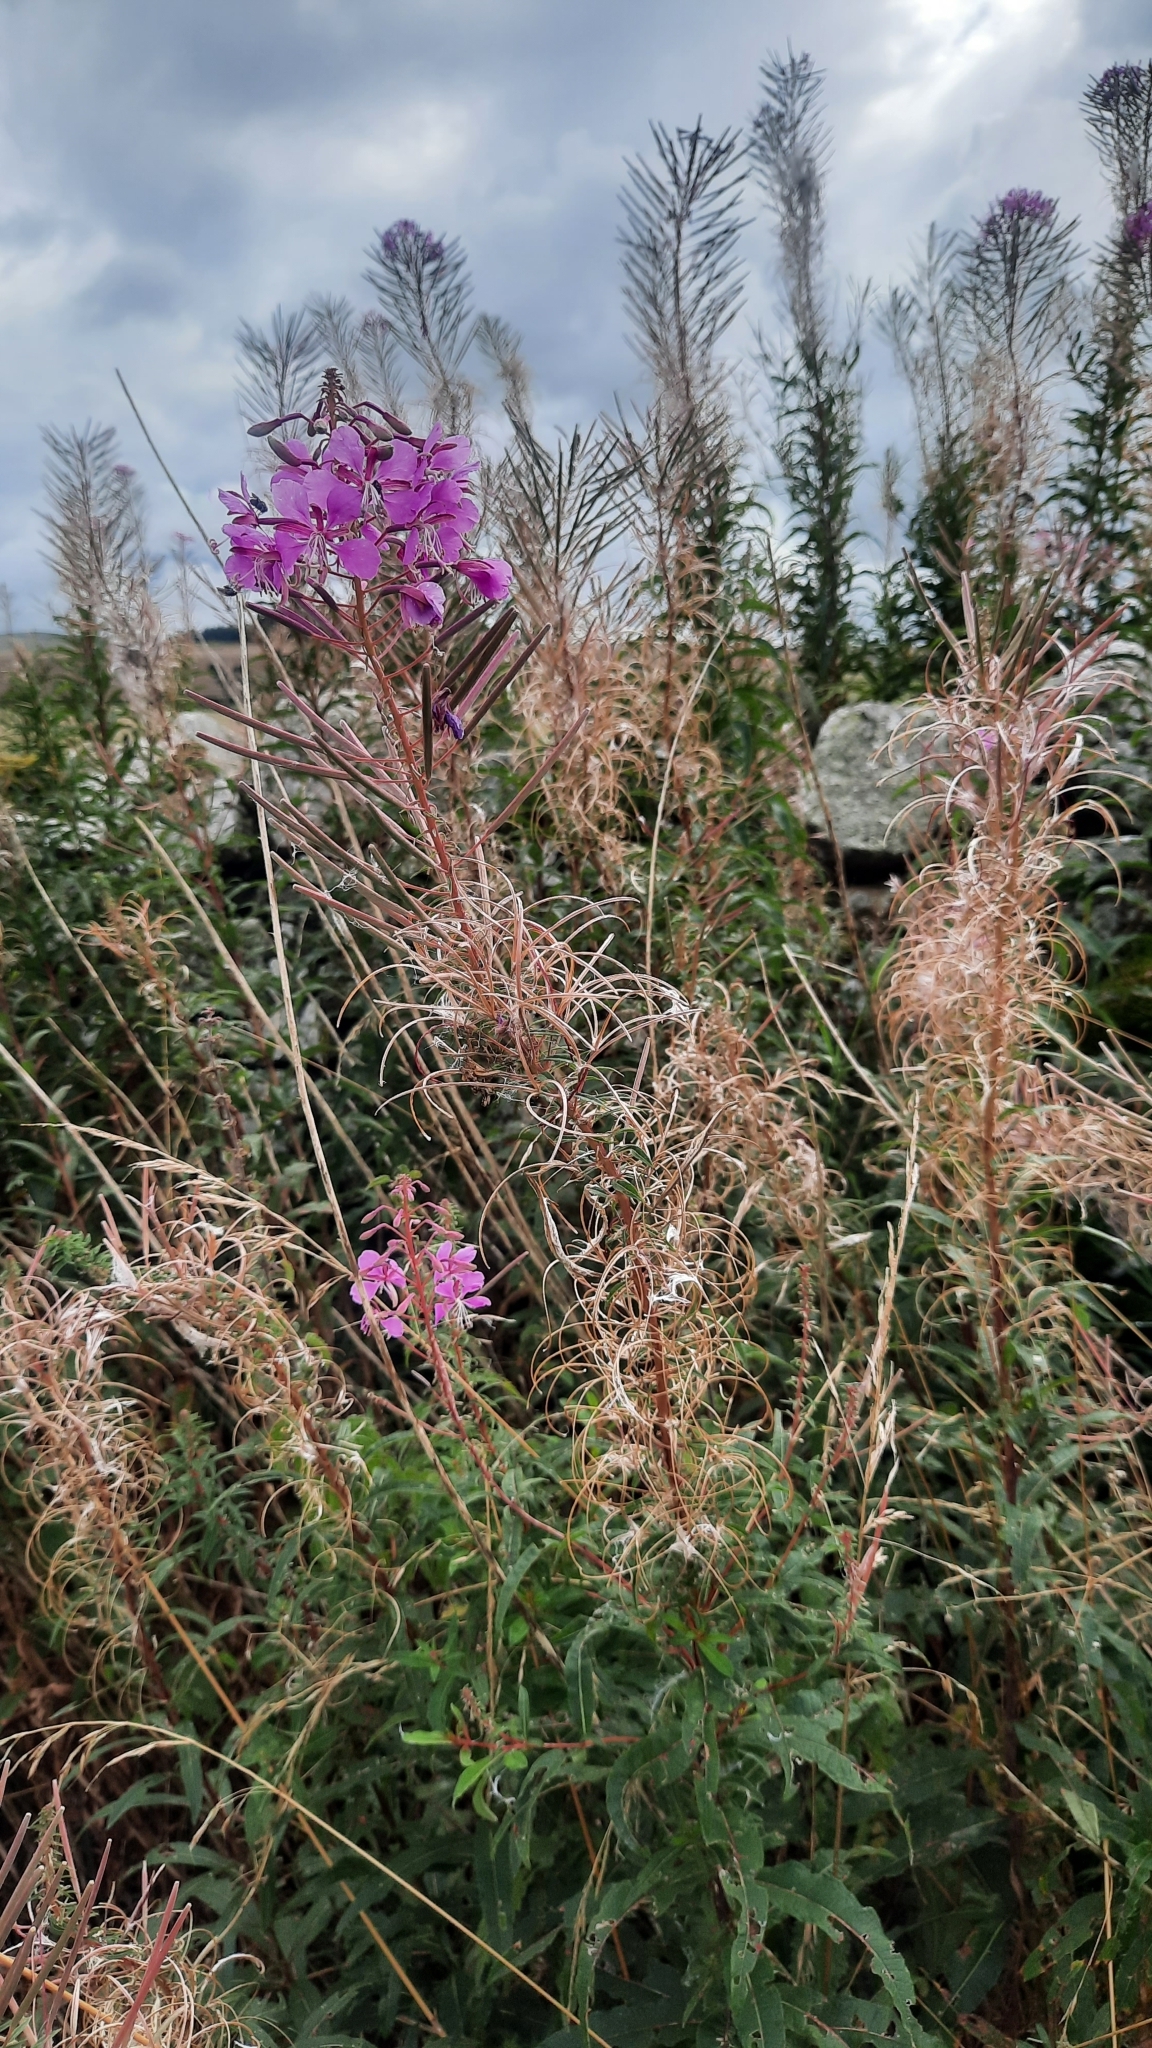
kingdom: Plantae
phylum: Tracheophyta
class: Magnoliopsida
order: Myrtales
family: Onagraceae
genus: Chamaenerion
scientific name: Chamaenerion angustifolium
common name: Fireweed
